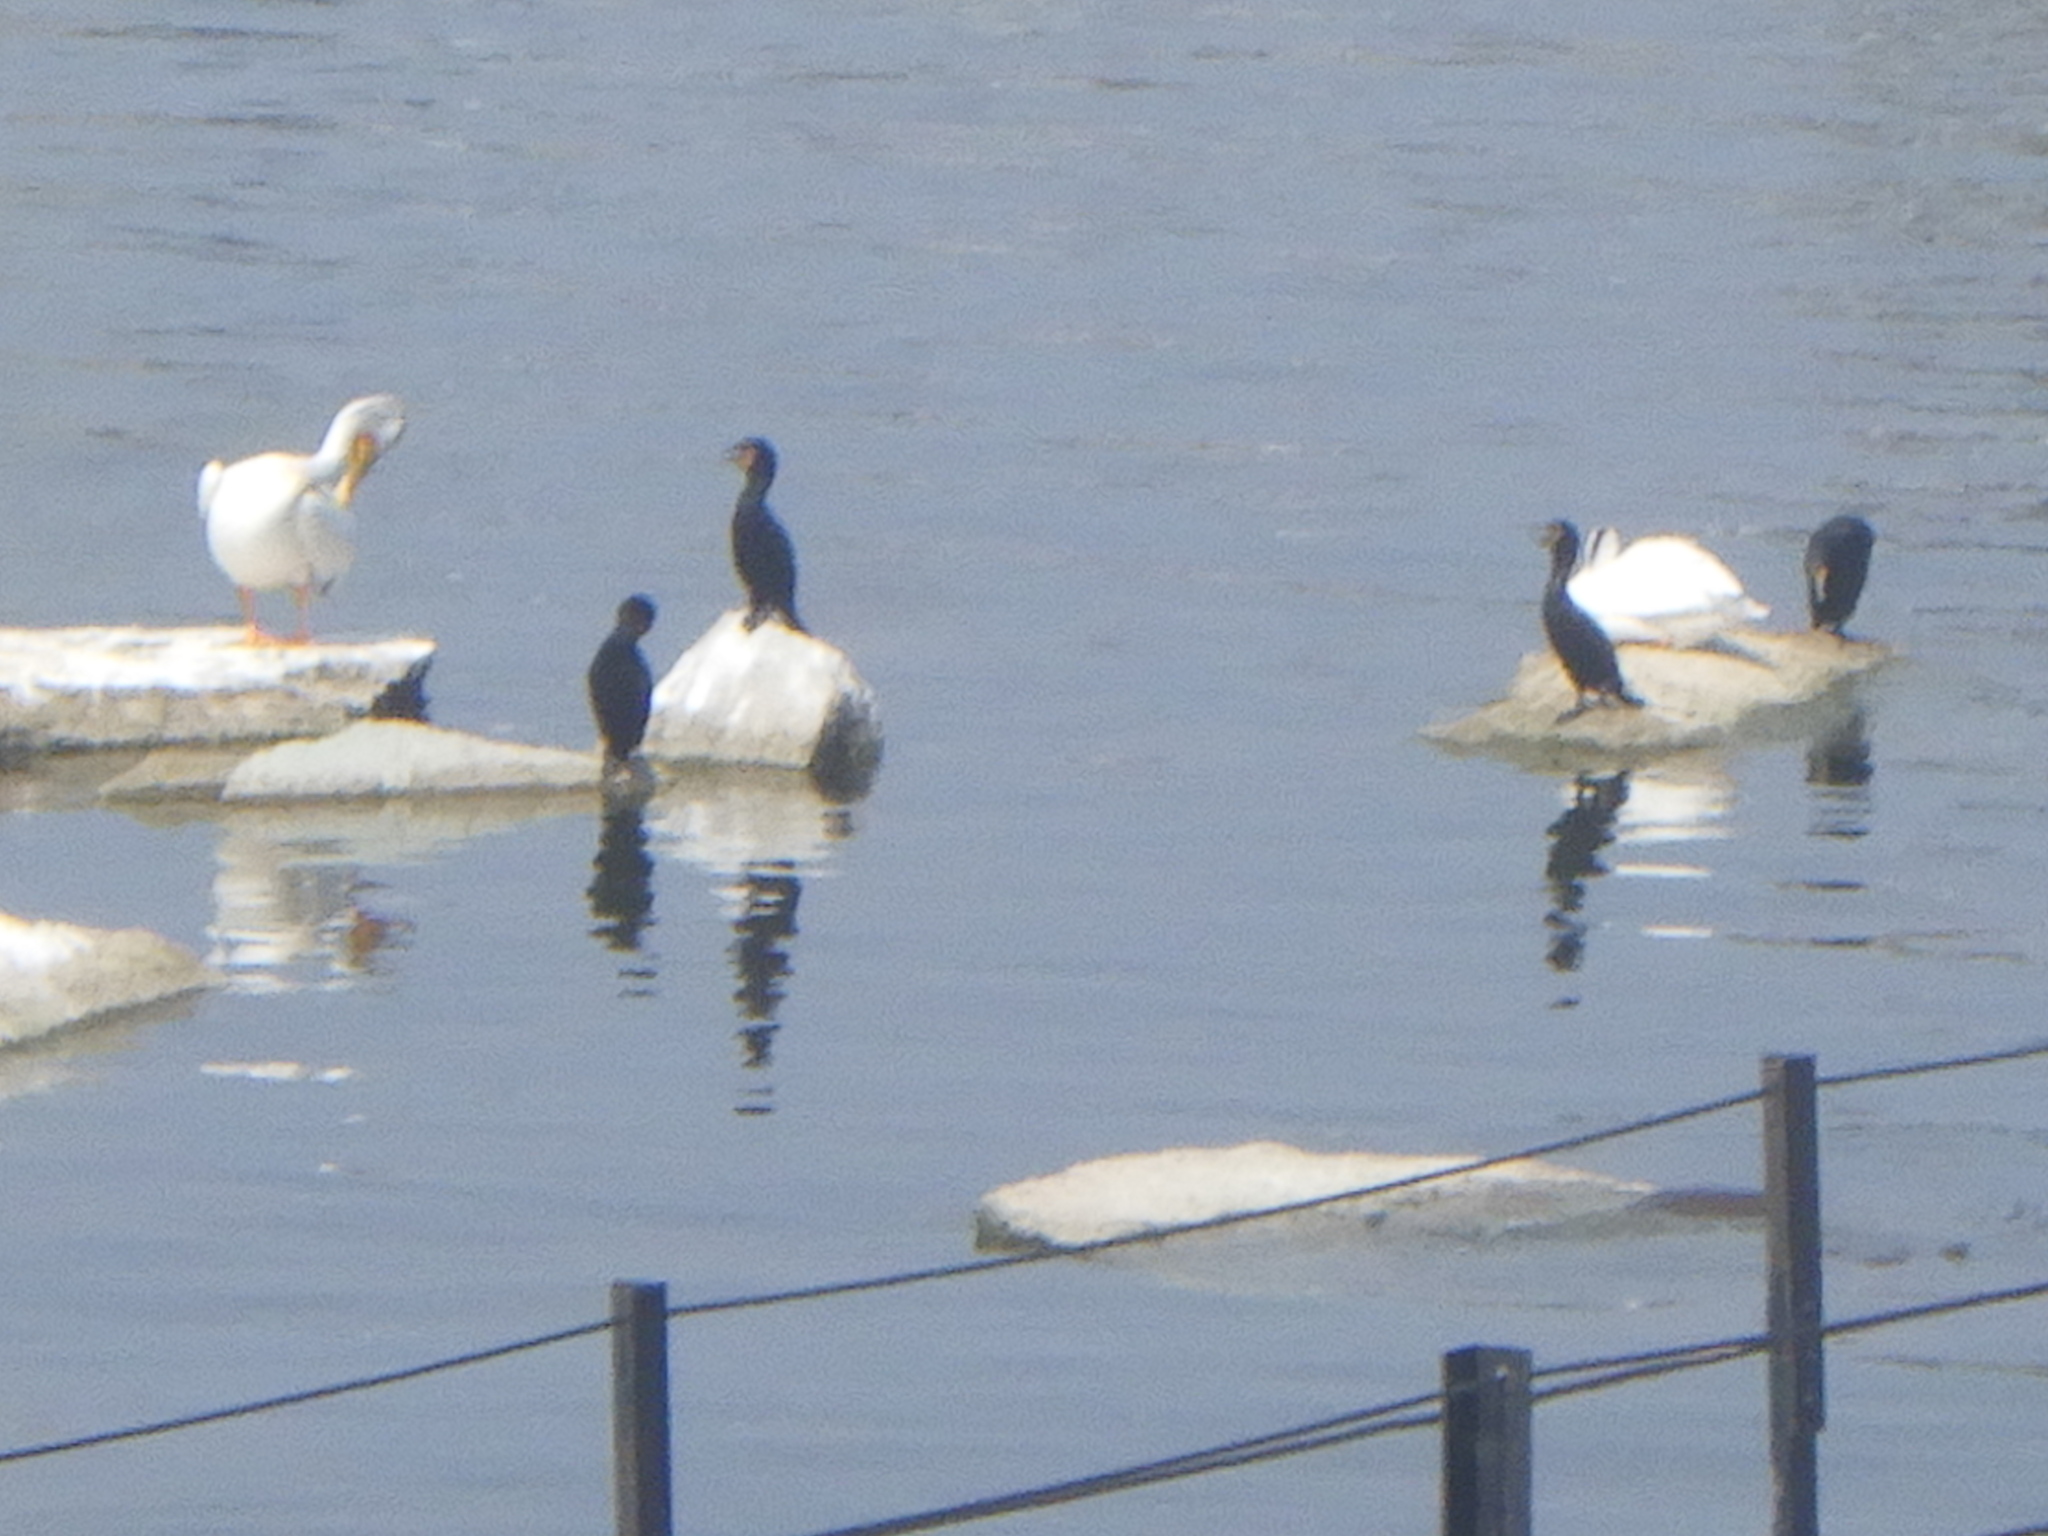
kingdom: Animalia
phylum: Chordata
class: Aves
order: Suliformes
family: Phalacrocoracidae
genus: Phalacrocorax
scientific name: Phalacrocorax auritus
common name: Double-crested cormorant
